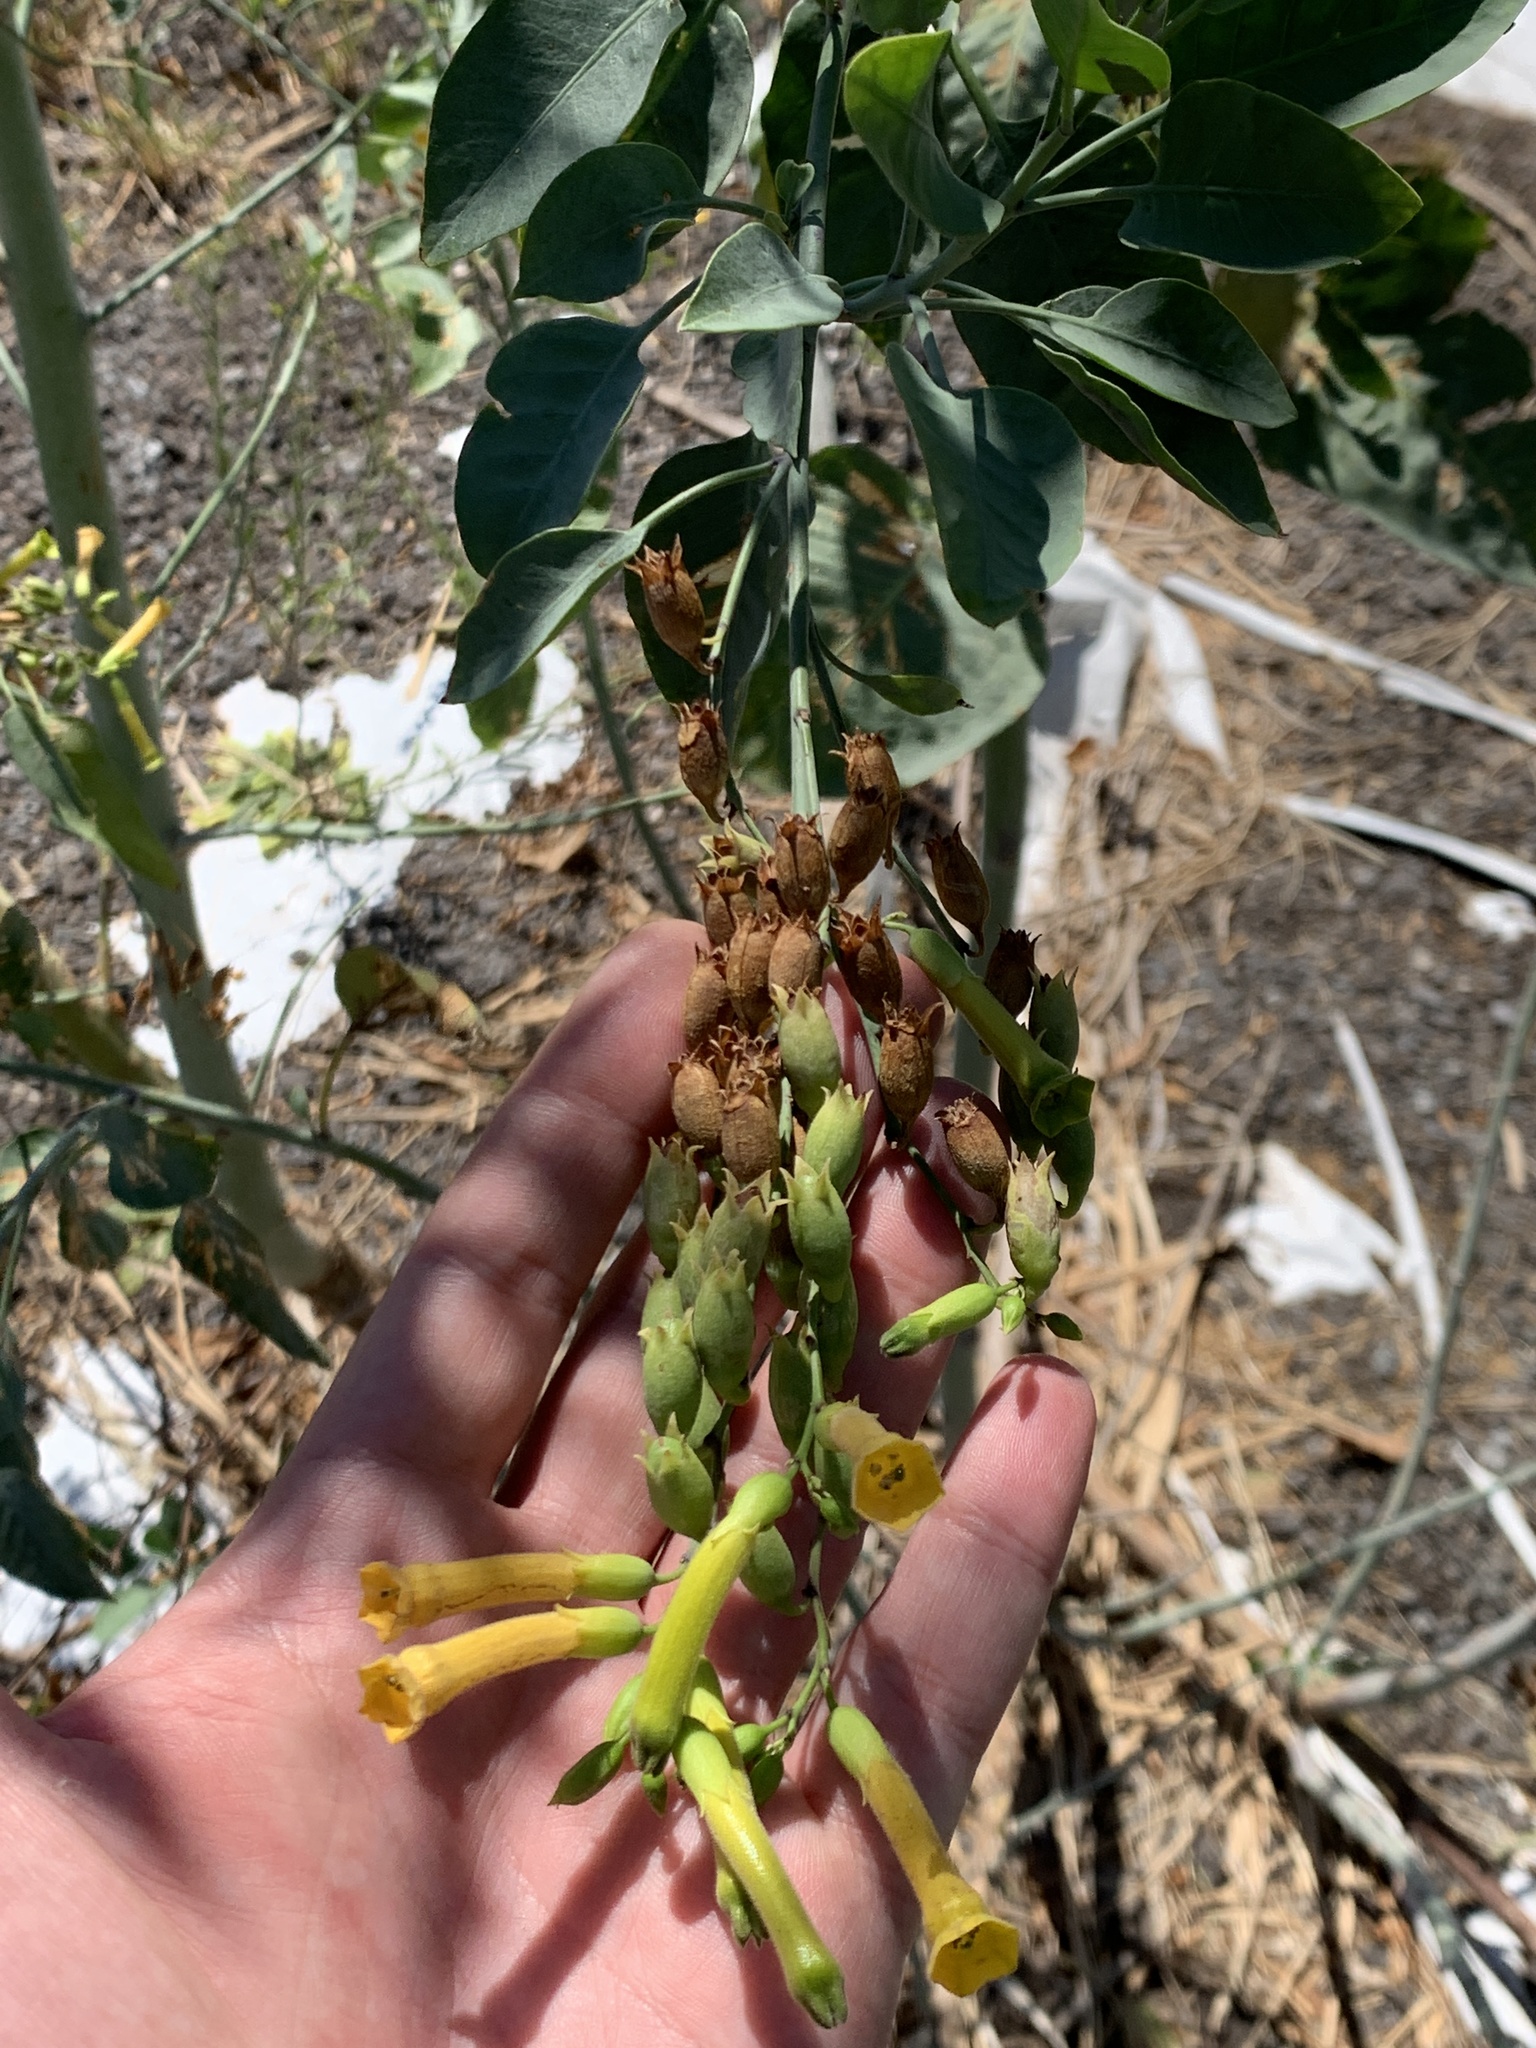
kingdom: Plantae
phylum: Tracheophyta
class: Magnoliopsida
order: Solanales
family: Solanaceae
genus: Nicotiana
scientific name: Nicotiana glauca
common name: Tree tobacco
